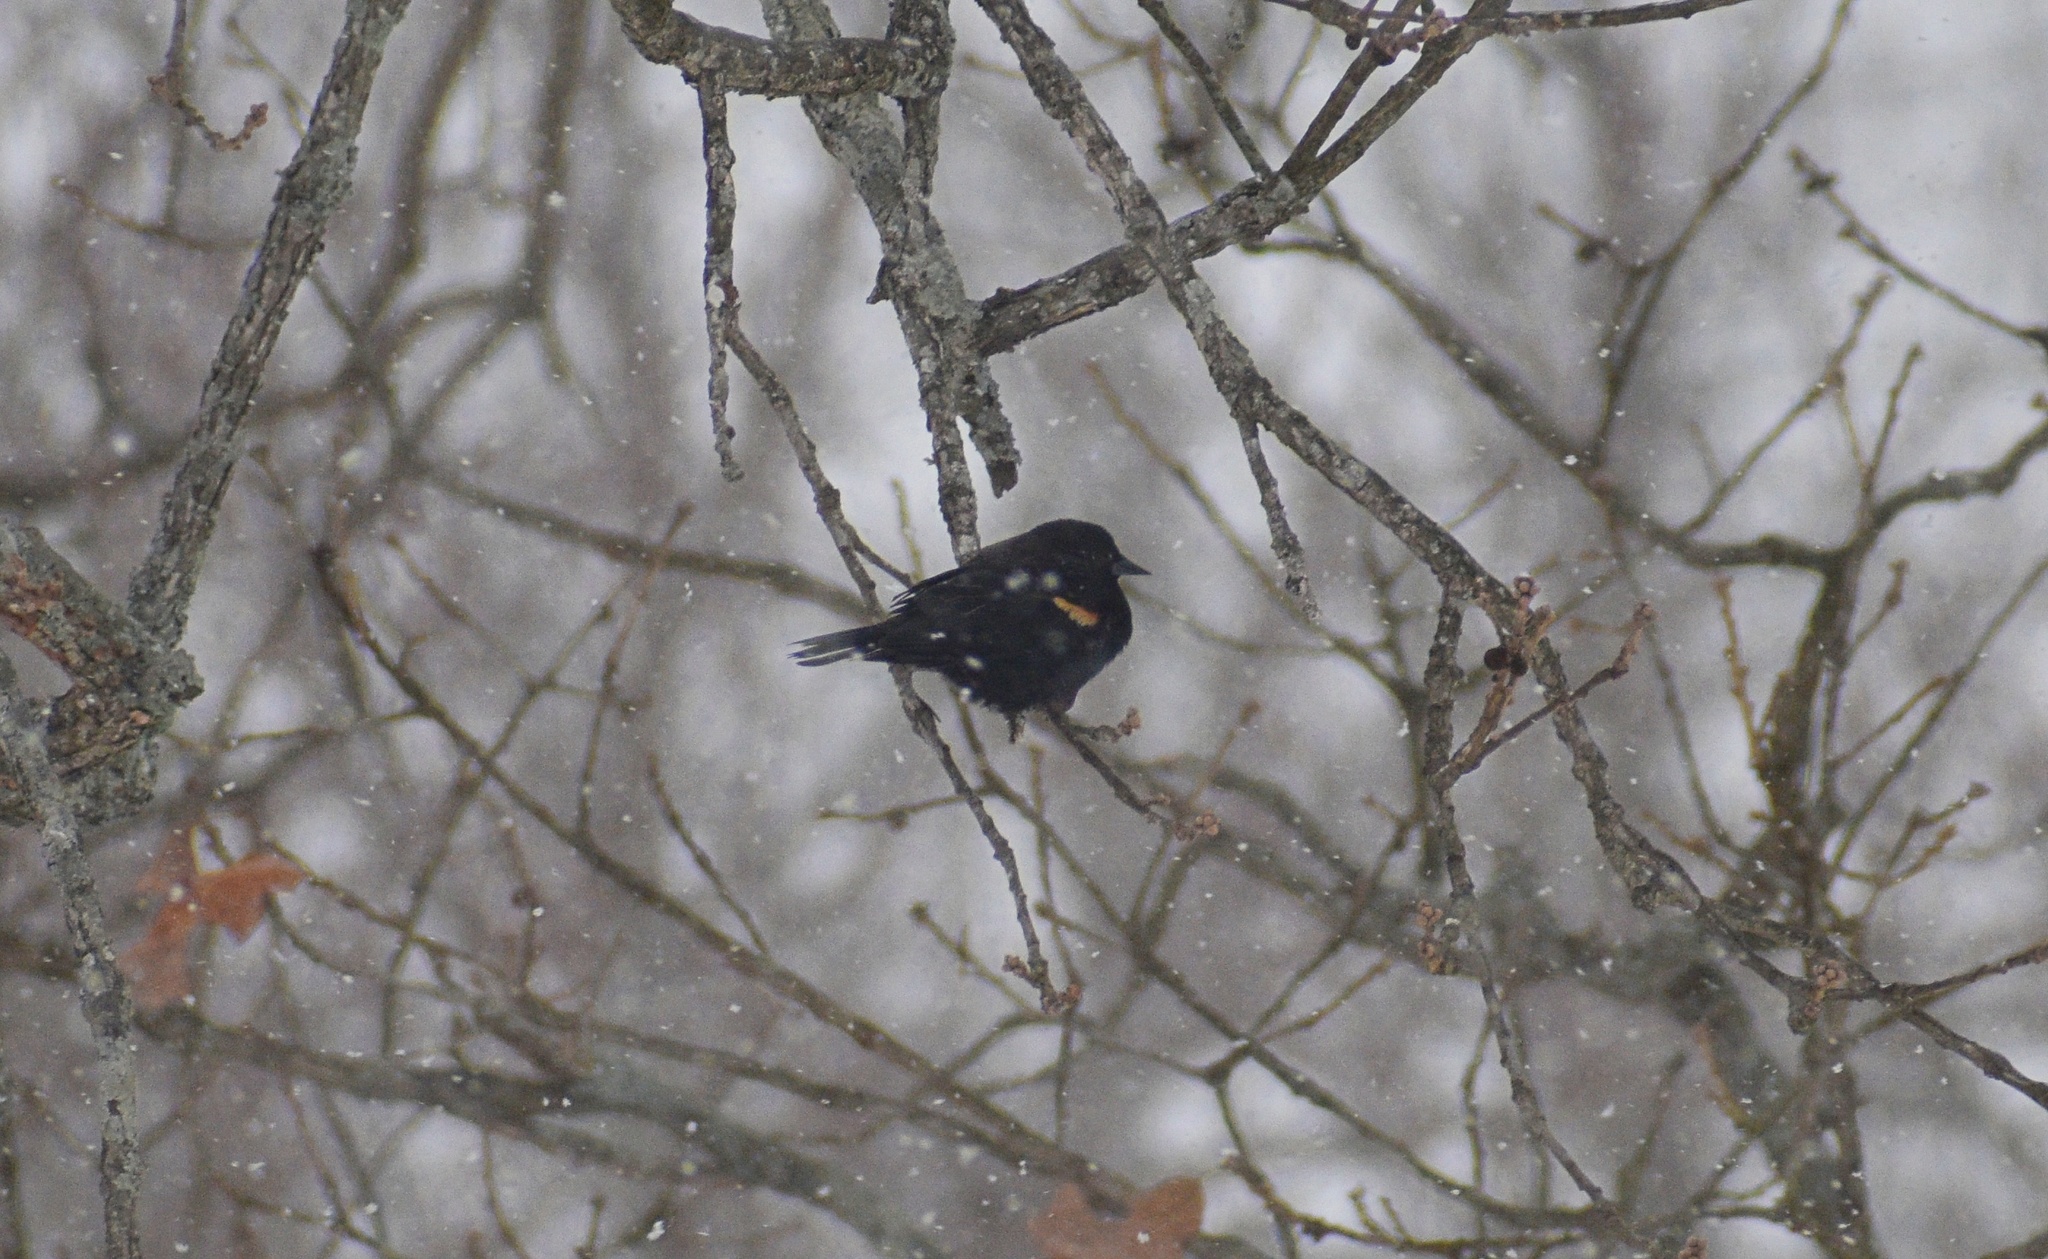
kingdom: Animalia
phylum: Chordata
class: Aves
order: Passeriformes
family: Icteridae
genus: Agelaius
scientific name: Agelaius phoeniceus
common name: Red-winged blackbird
